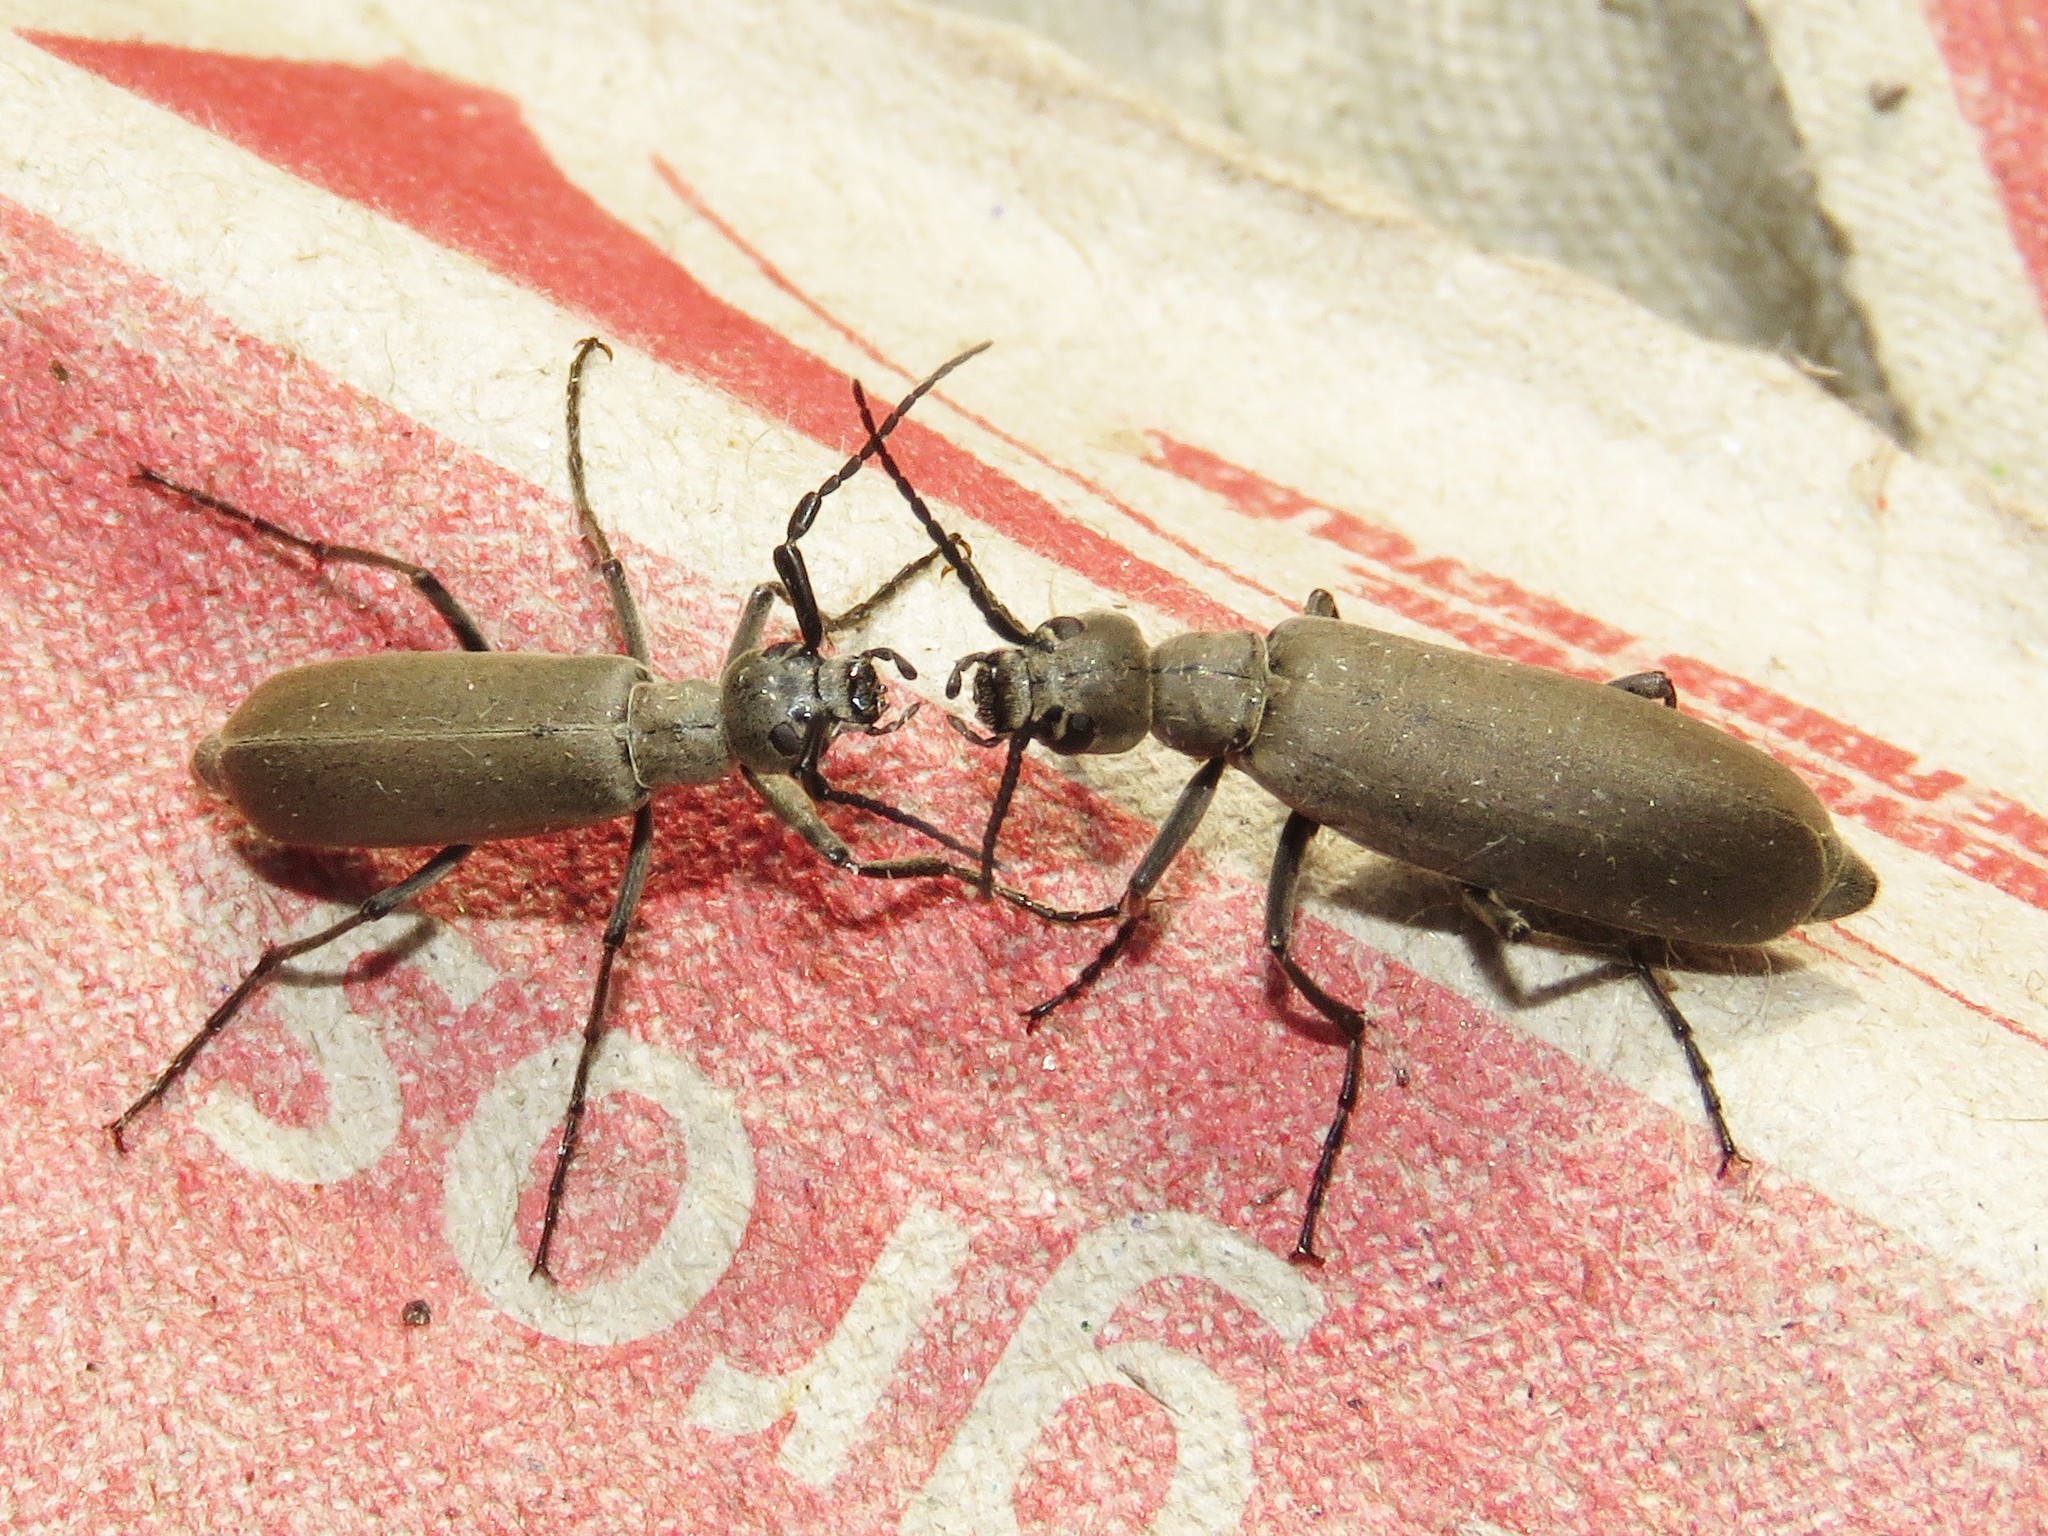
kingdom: Animalia
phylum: Arthropoda
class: Insecta
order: Coleoptera
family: Meloidae
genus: Epicauta
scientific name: Epicauta fabricii
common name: Ashgray blister beetle
